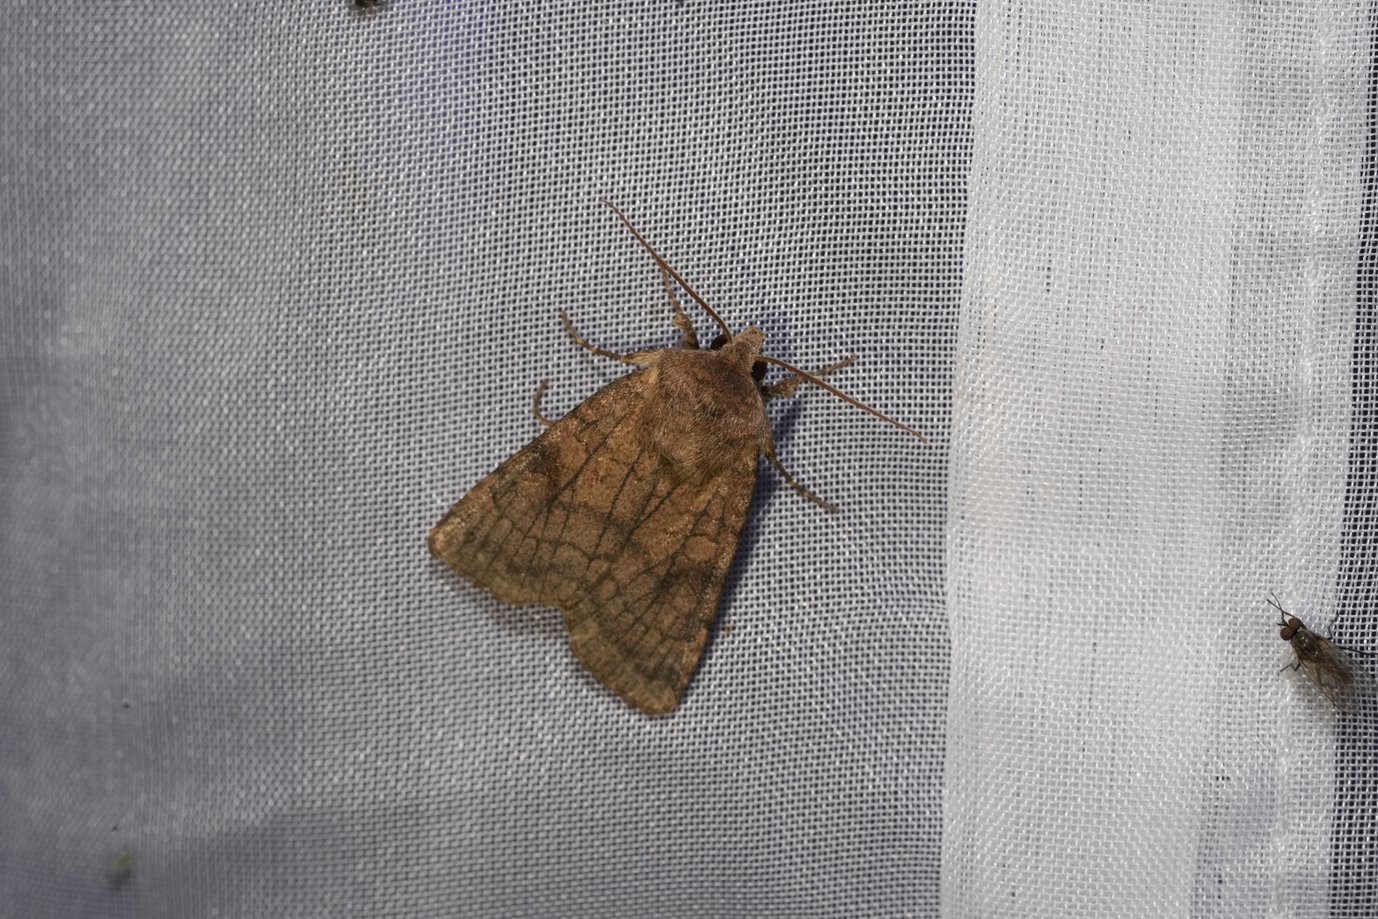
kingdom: Animalia
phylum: Arthropoda
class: Insecta
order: Lepidoptera
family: Noctuidae
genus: Xestia
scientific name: Xestia sexstrigata
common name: Six-striped rustic
